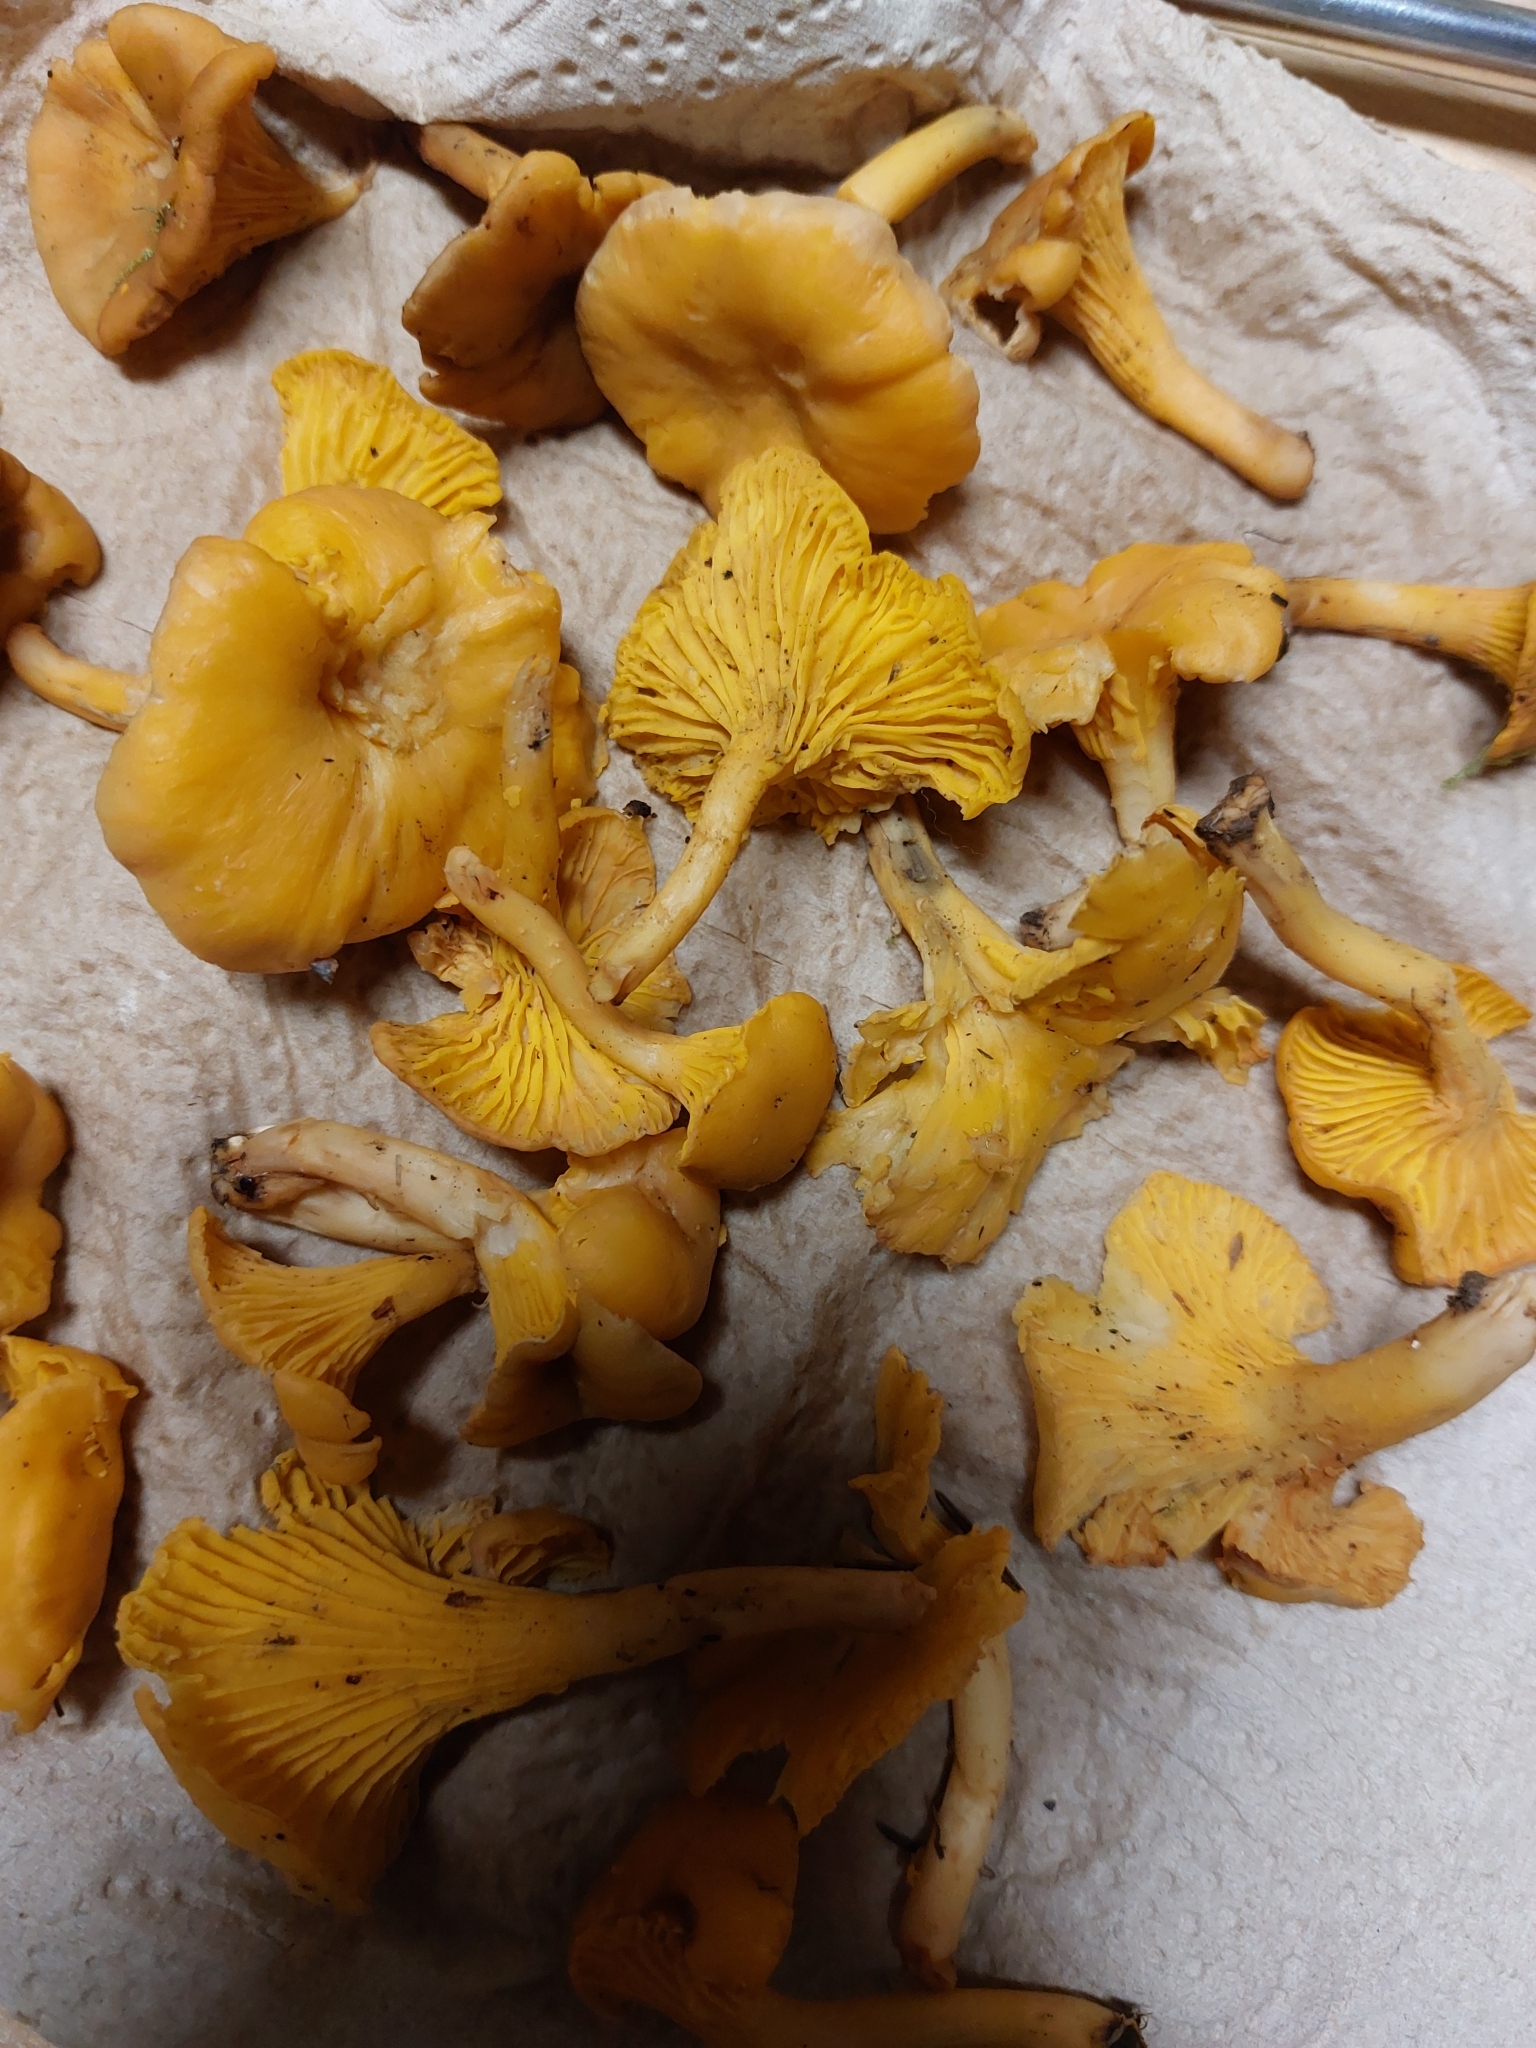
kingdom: Fungi
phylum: Basidiomycota
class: Agaricomycetes
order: Cantharellales
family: Hydnaceae
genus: Cantharellus
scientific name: Cantharellus cibarius
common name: Chanterelle
